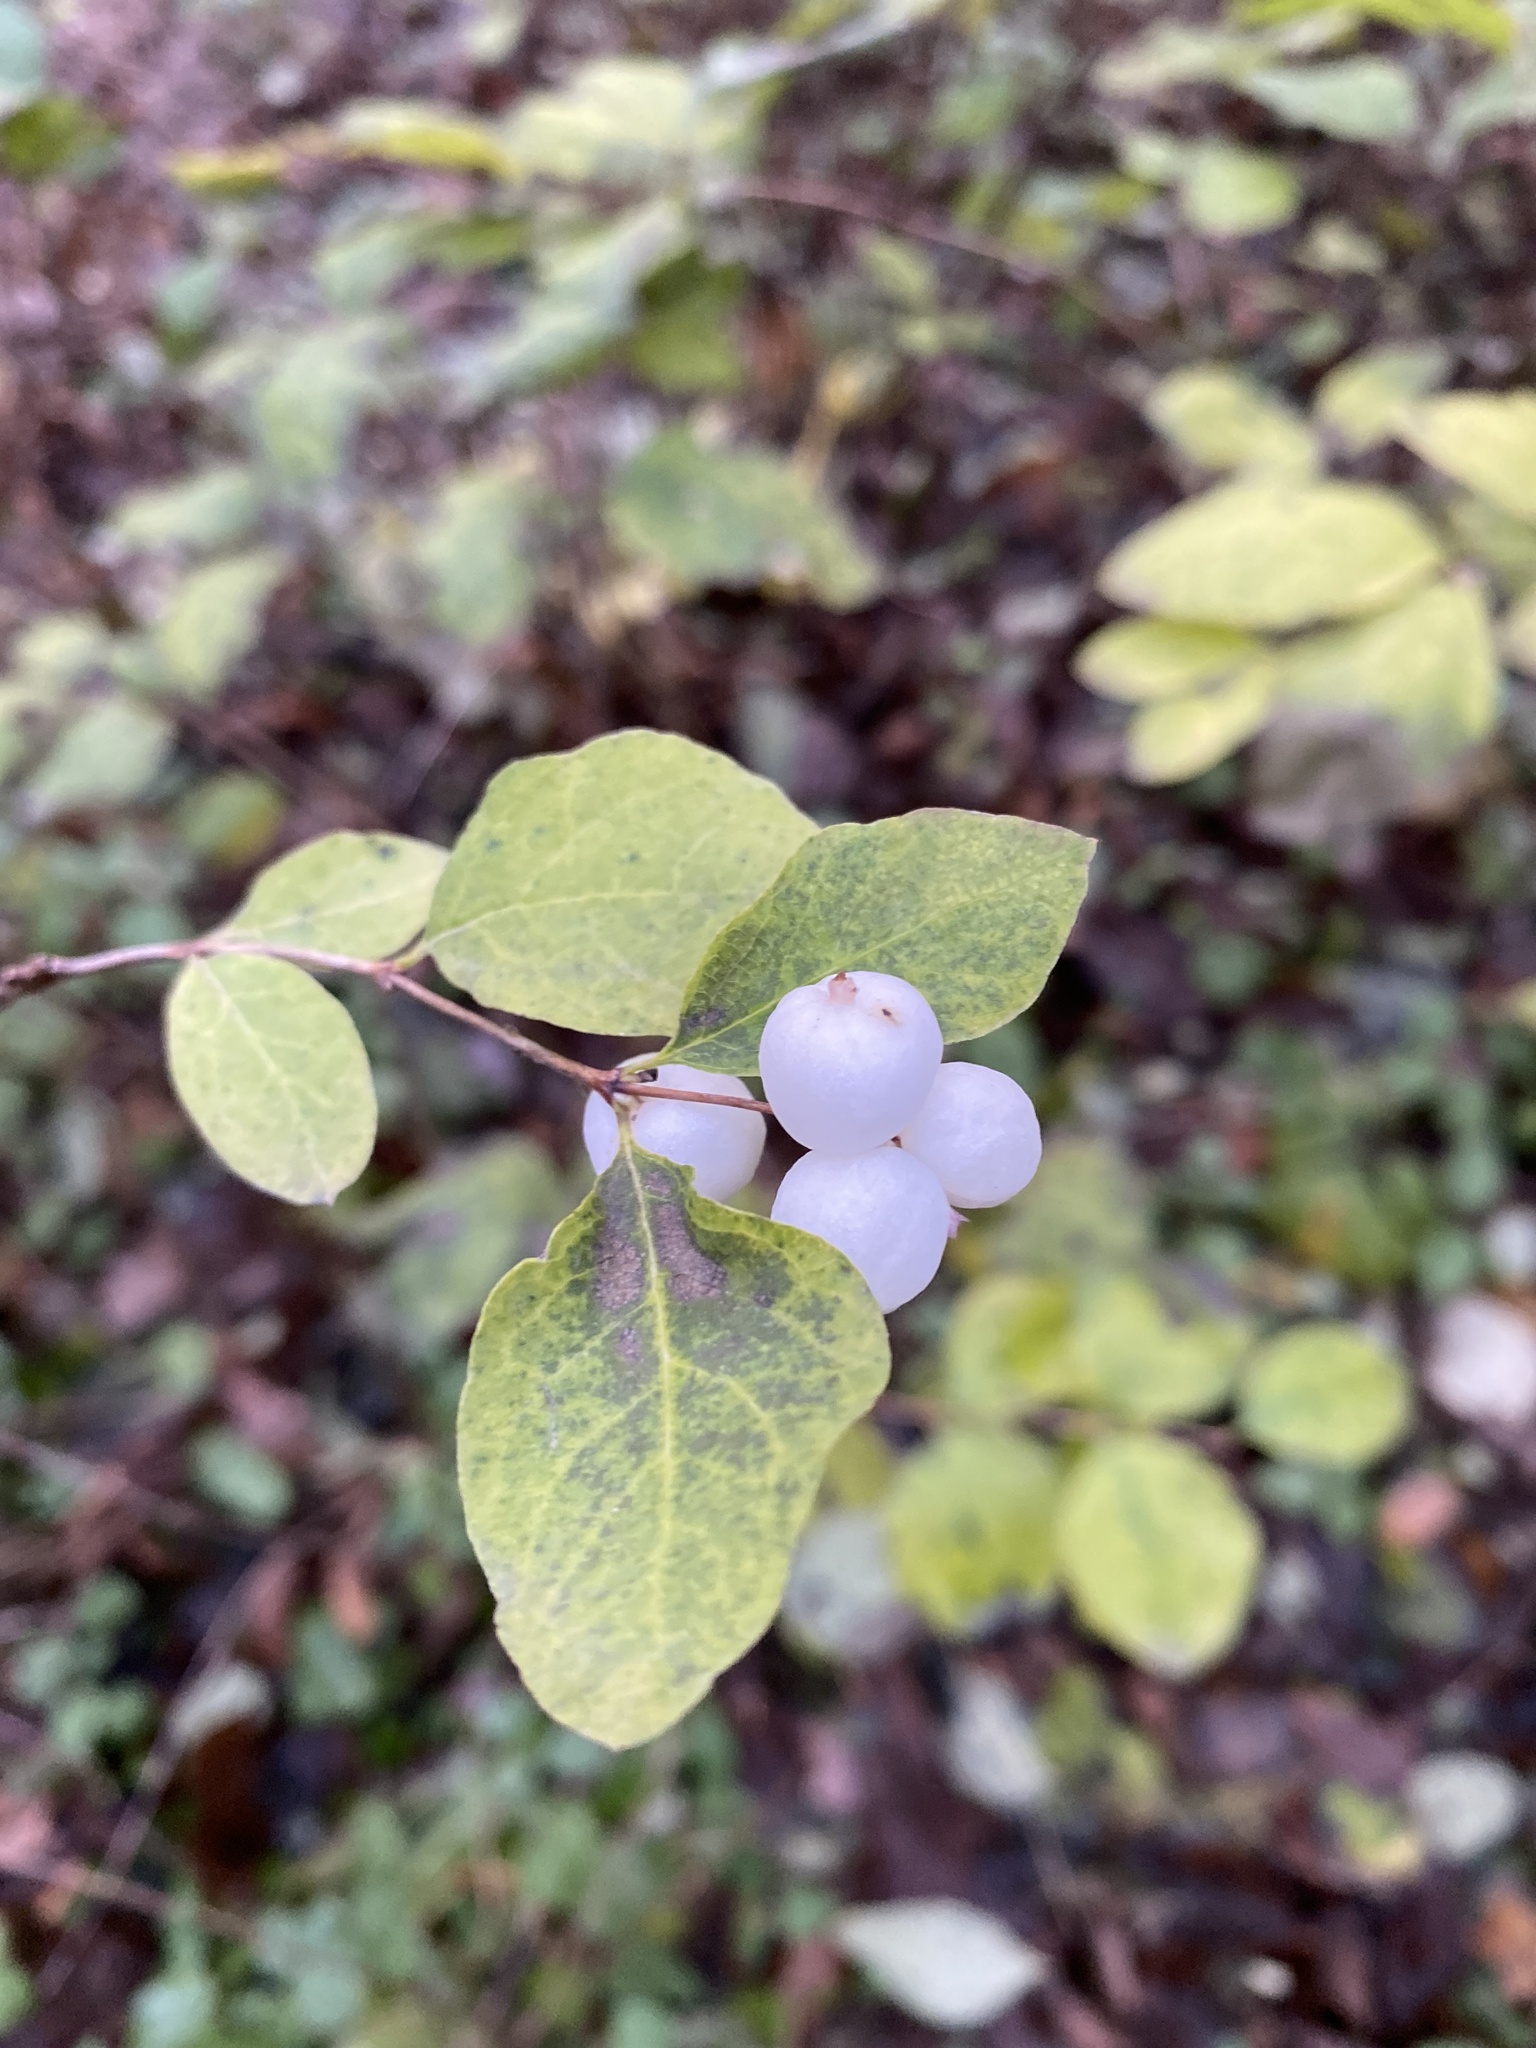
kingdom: Plantae
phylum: Tracheophyta
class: Magnoliopsida
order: Dipsacales
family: Caprifoliaceae
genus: Symphoricarpos
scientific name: Symphoricarpos albus
